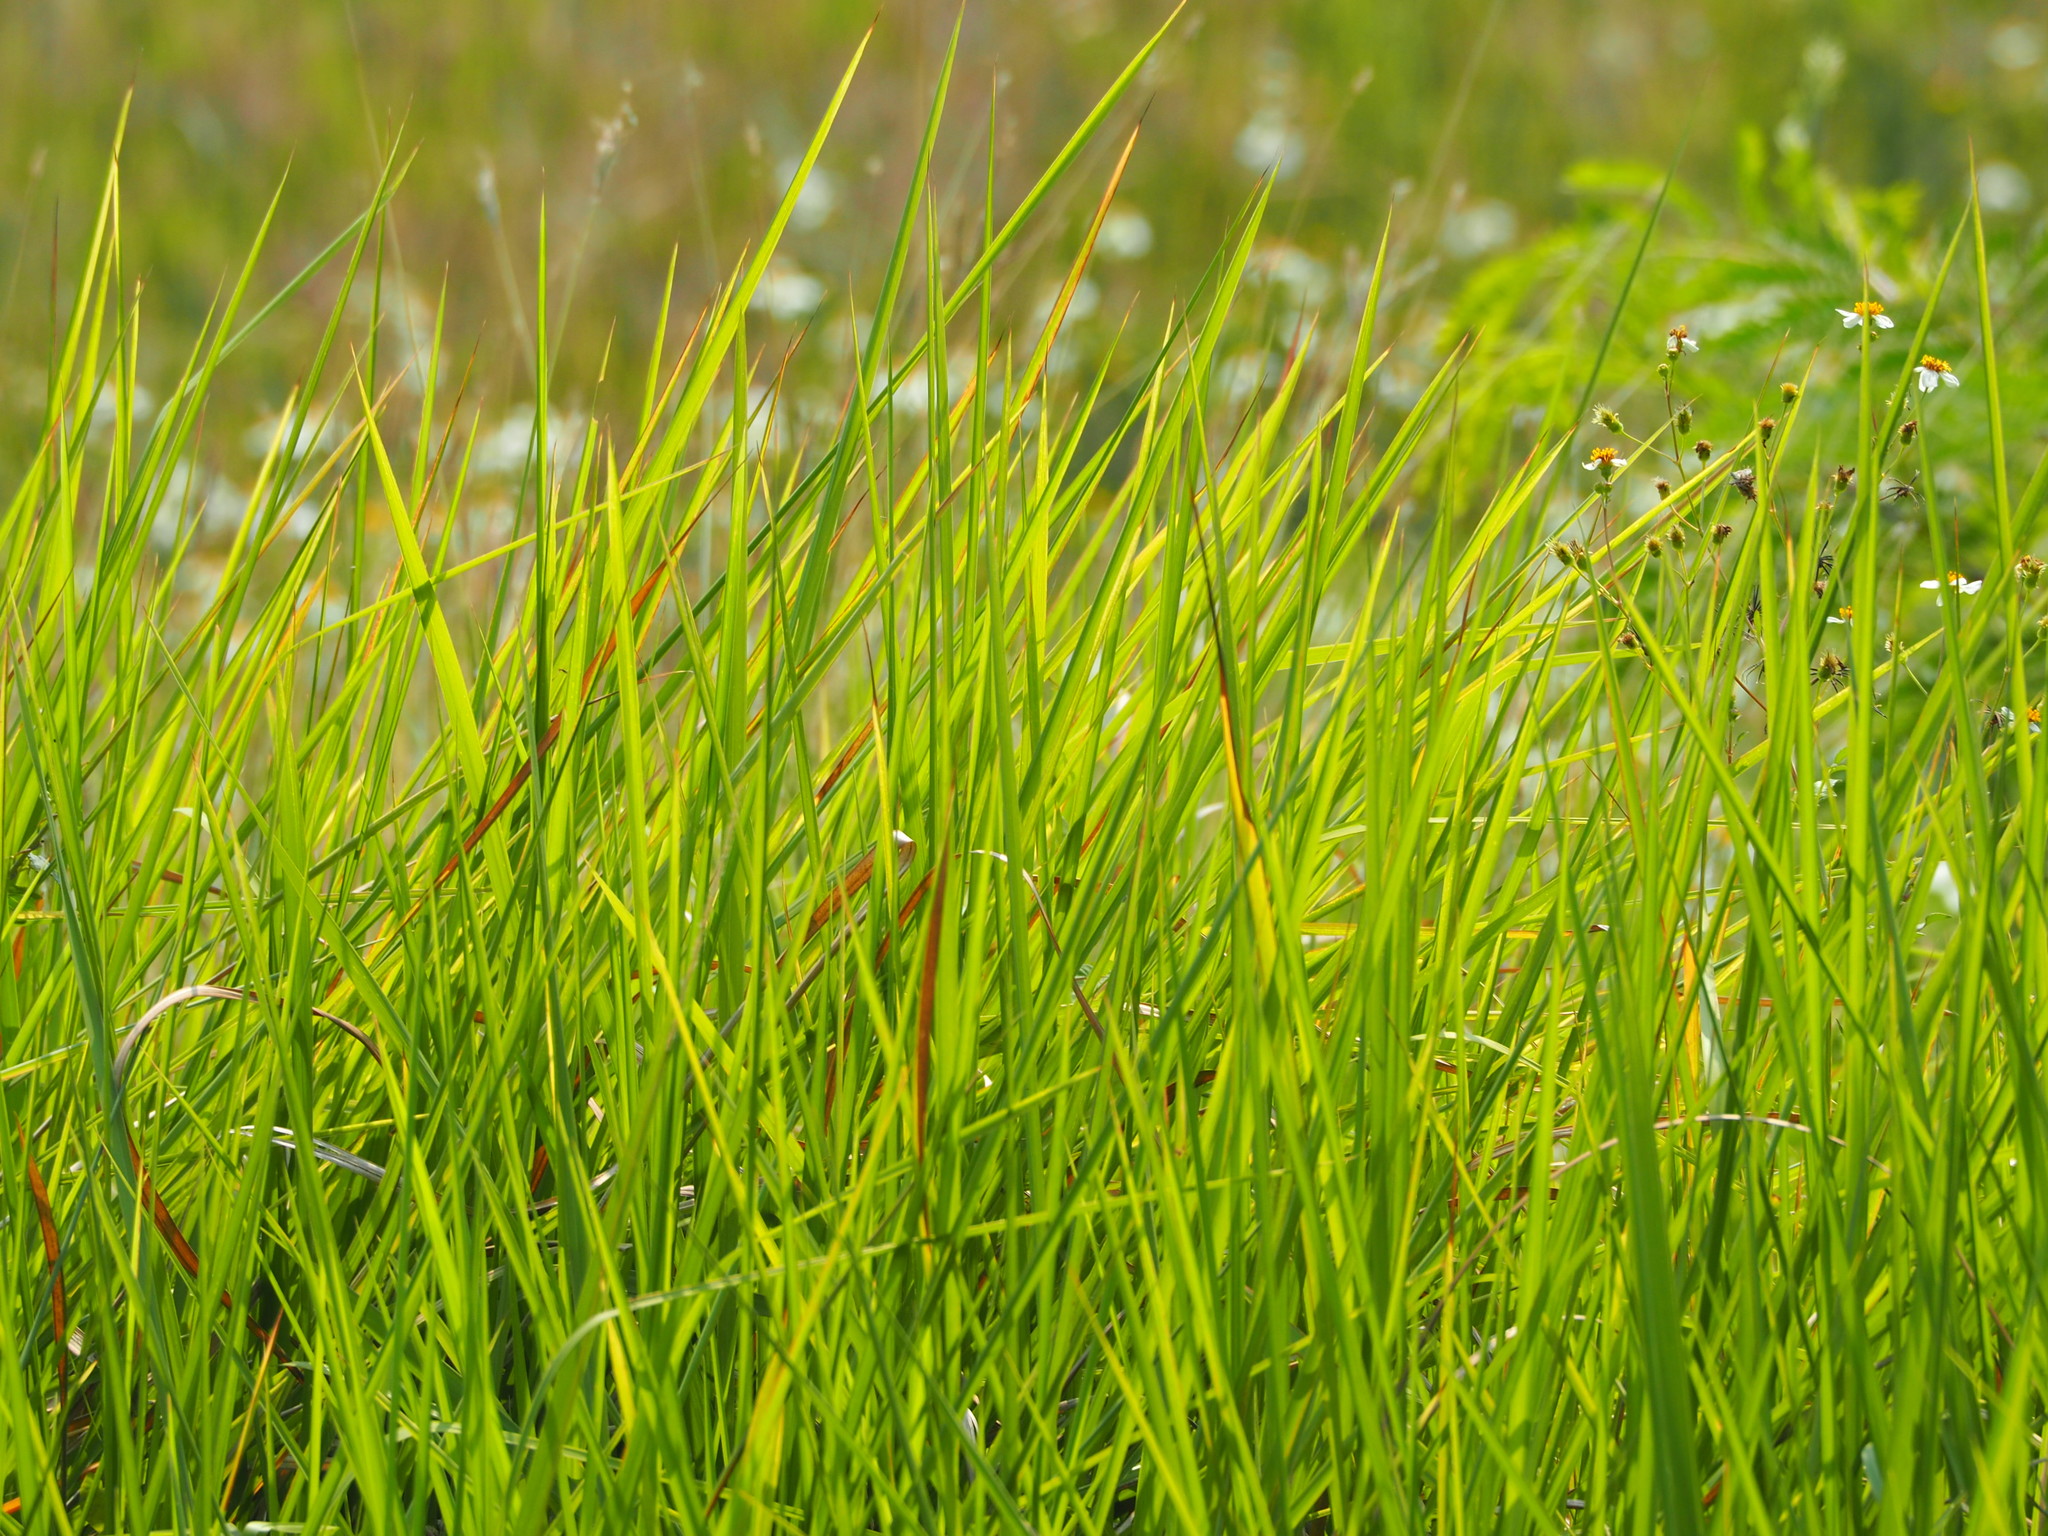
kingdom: Plantae
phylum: Tracheophyta
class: Liliopsida
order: Poales
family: Poaceae
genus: Imperata
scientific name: Imperata cylindrica
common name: Cogongrass
